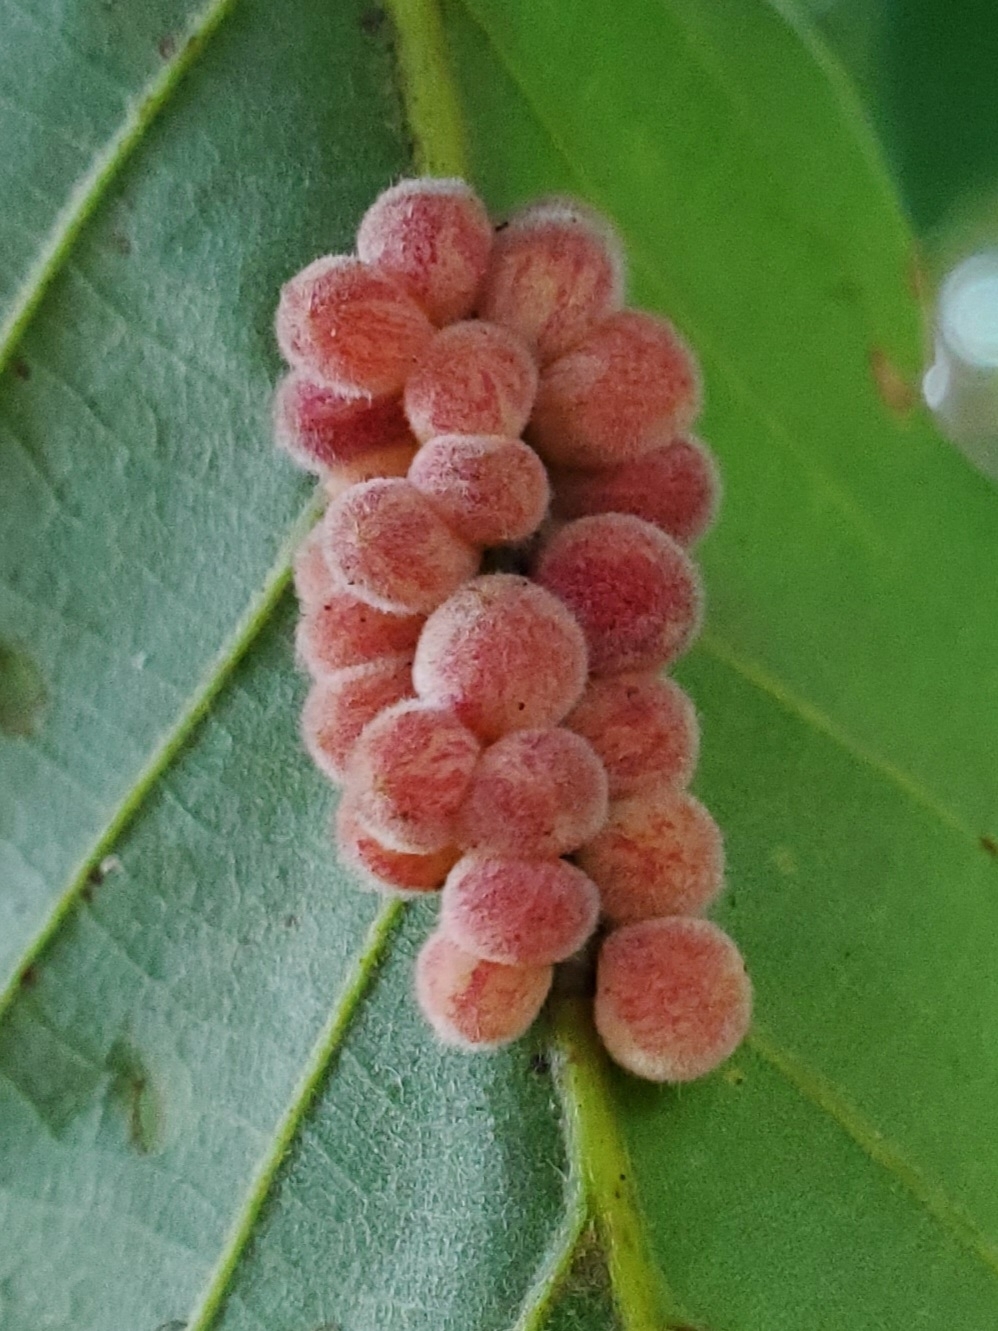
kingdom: Animalia
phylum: Arthropoda
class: Insecta
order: Hymenoptera
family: Cynipidae
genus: Andricus
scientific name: Andricus
